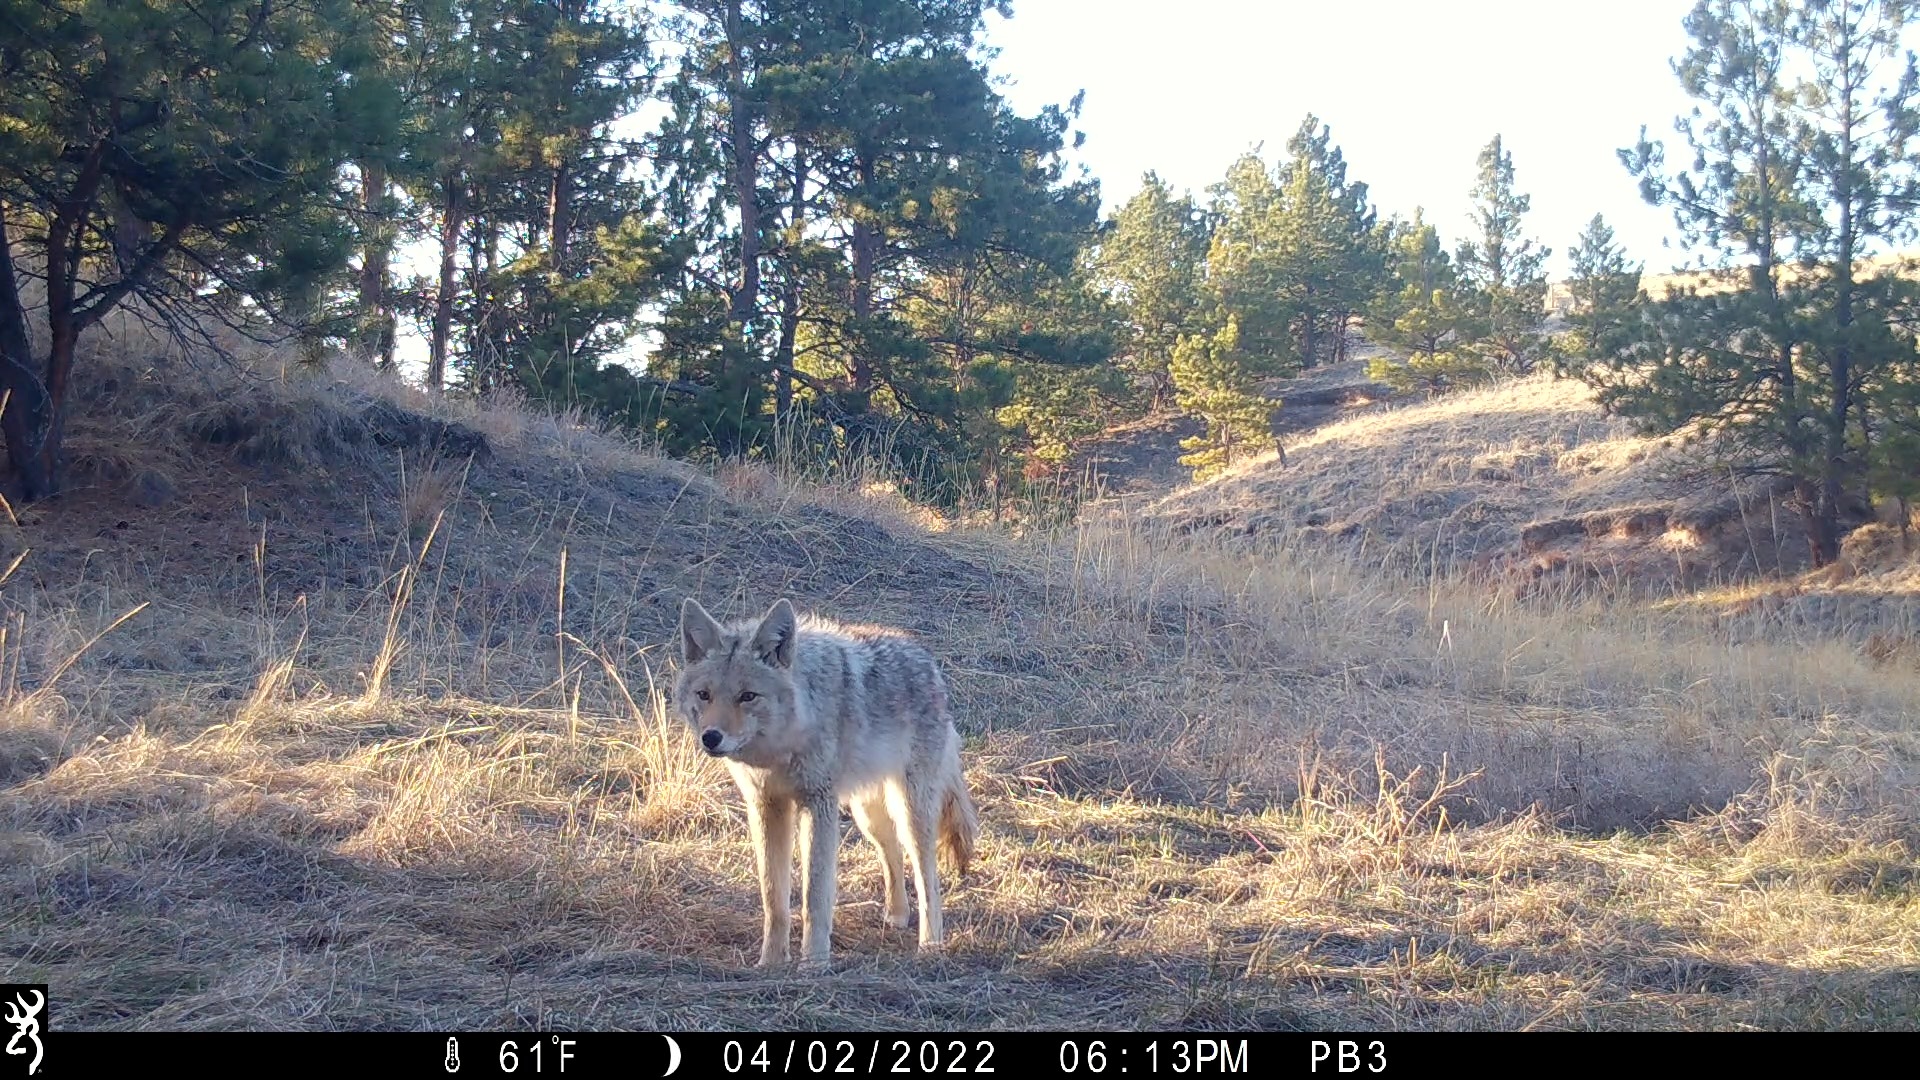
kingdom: Animalia
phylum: Chordata
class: Mammalia
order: Carnivora
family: Canidae
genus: Canis
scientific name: Canis latrans
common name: Coyote
